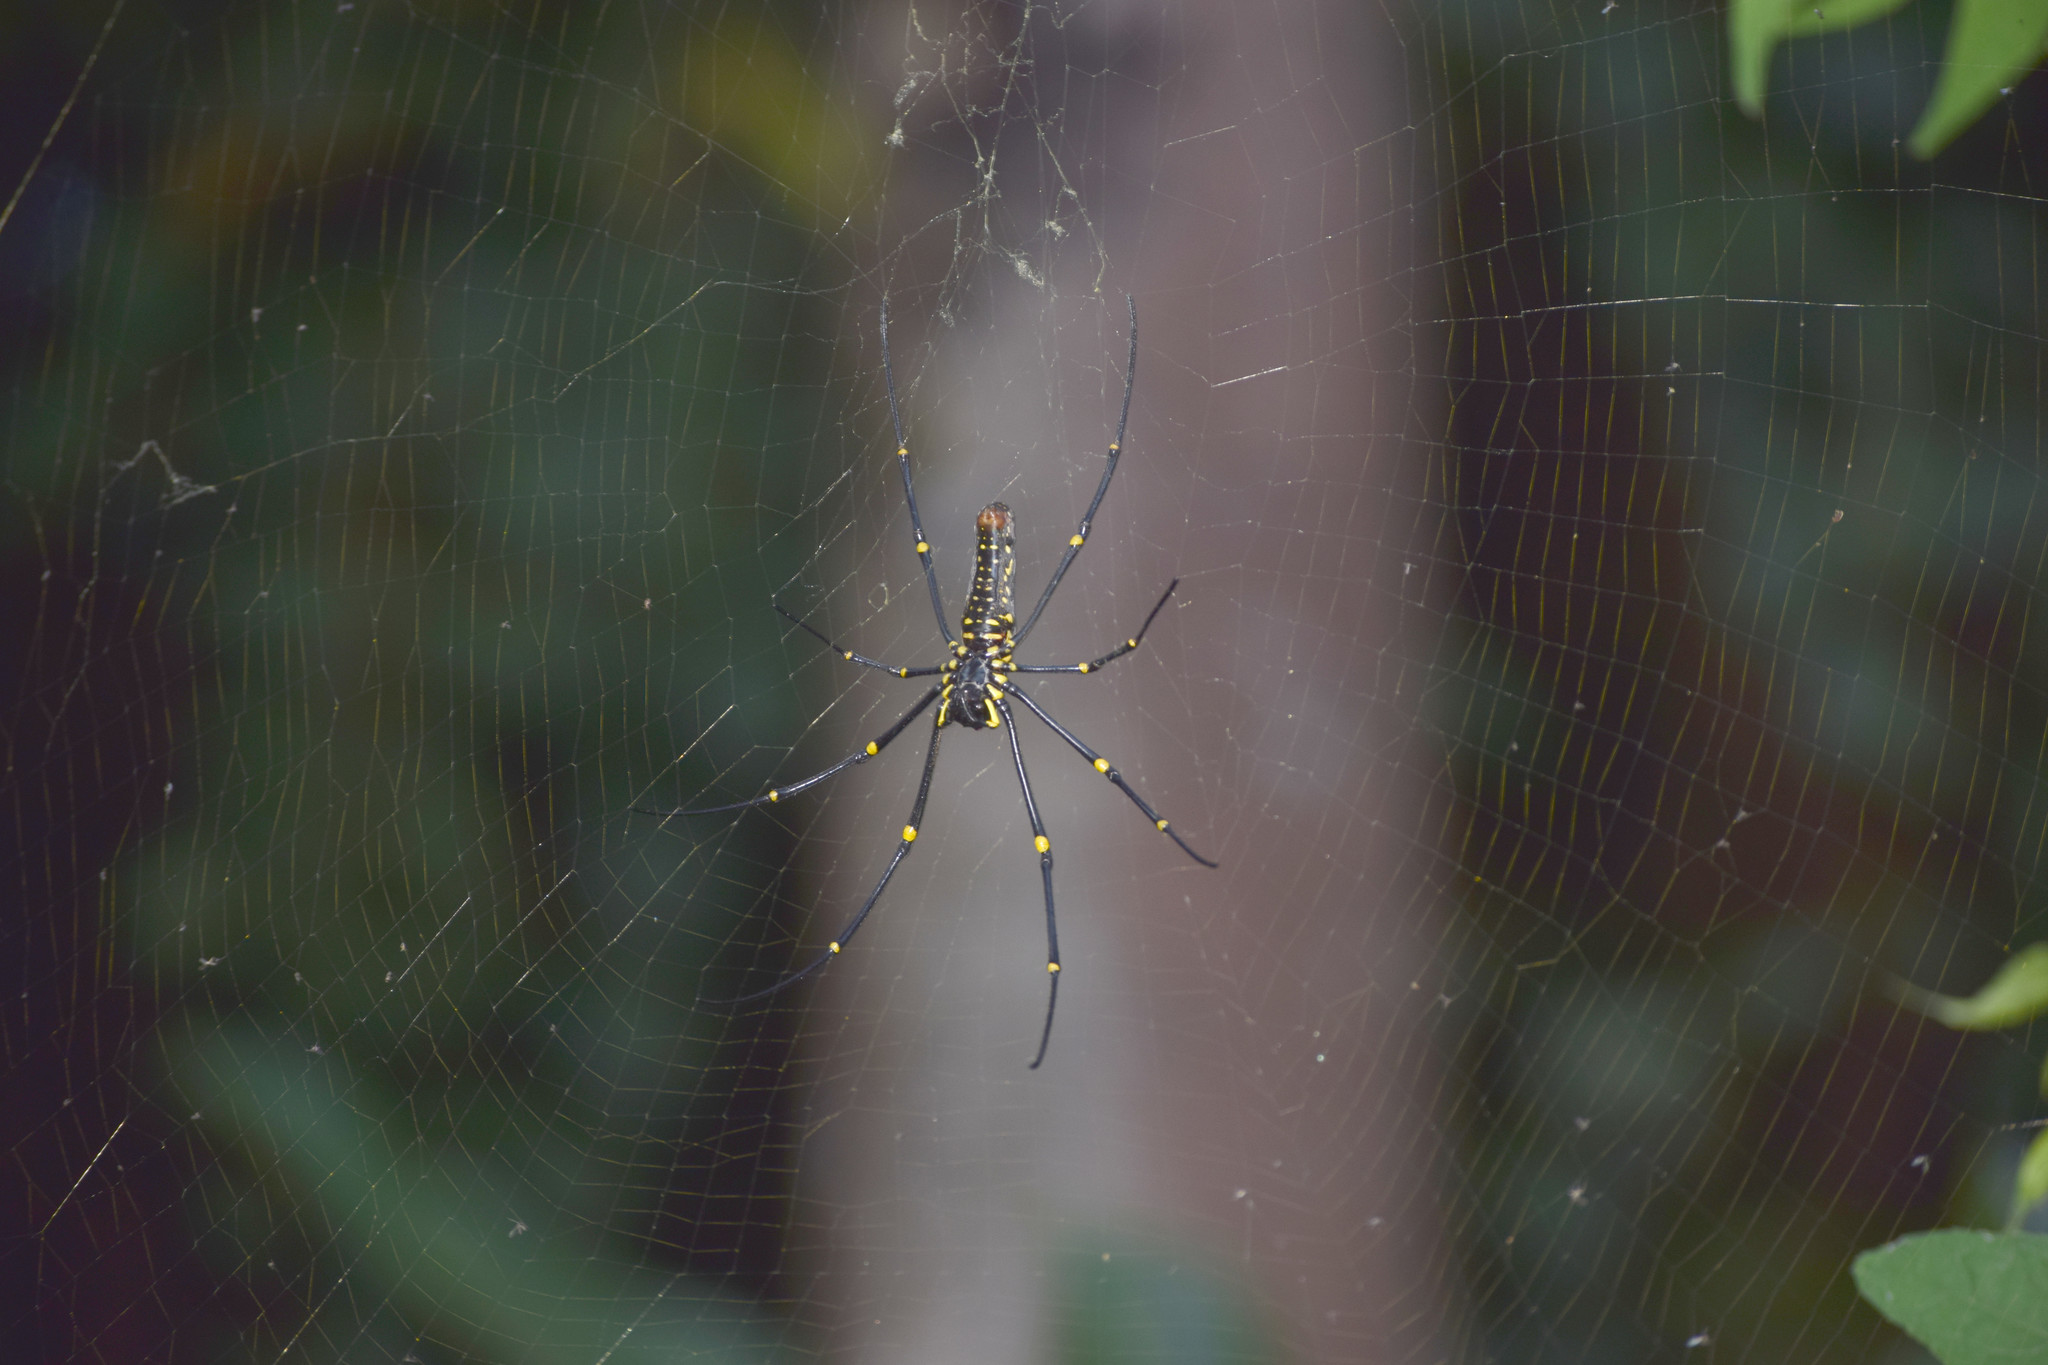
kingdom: Animalia
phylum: Arthropoda
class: Arachnida
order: Araneae
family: Araneidae
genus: Nephila
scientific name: Nephila pilipes
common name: Giant golden orb weaver
